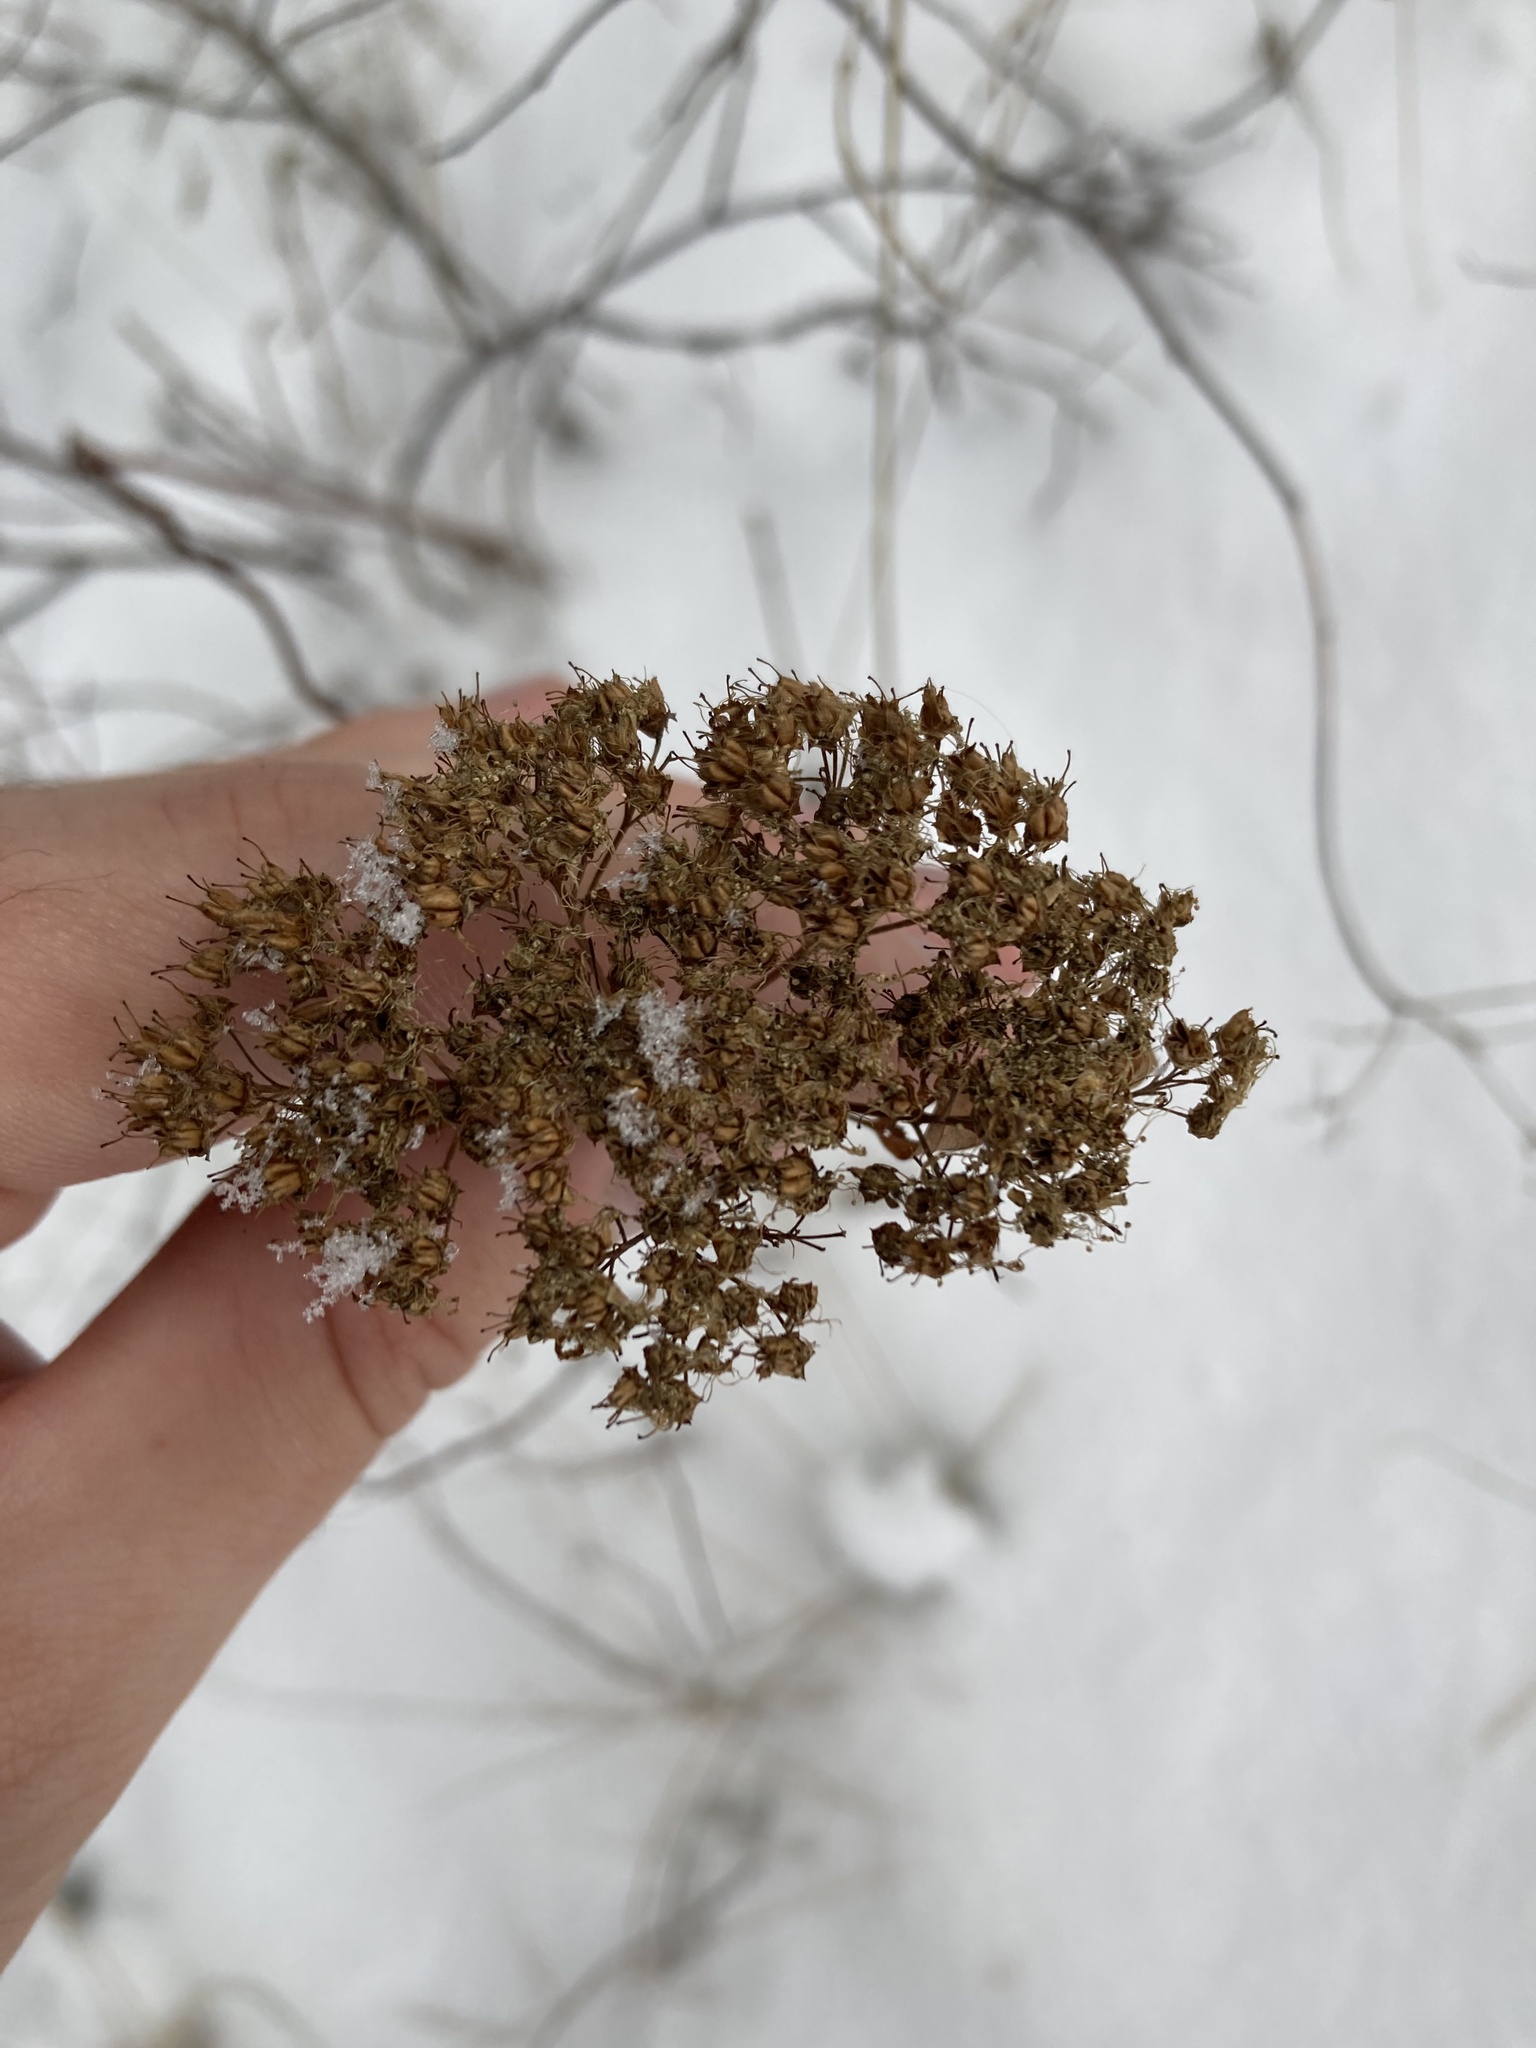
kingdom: Plantae
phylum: Tracheophyta
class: Magnoliopsida
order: Rosales
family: Rosaceae
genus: Spiraea
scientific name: Spiraea lucida
